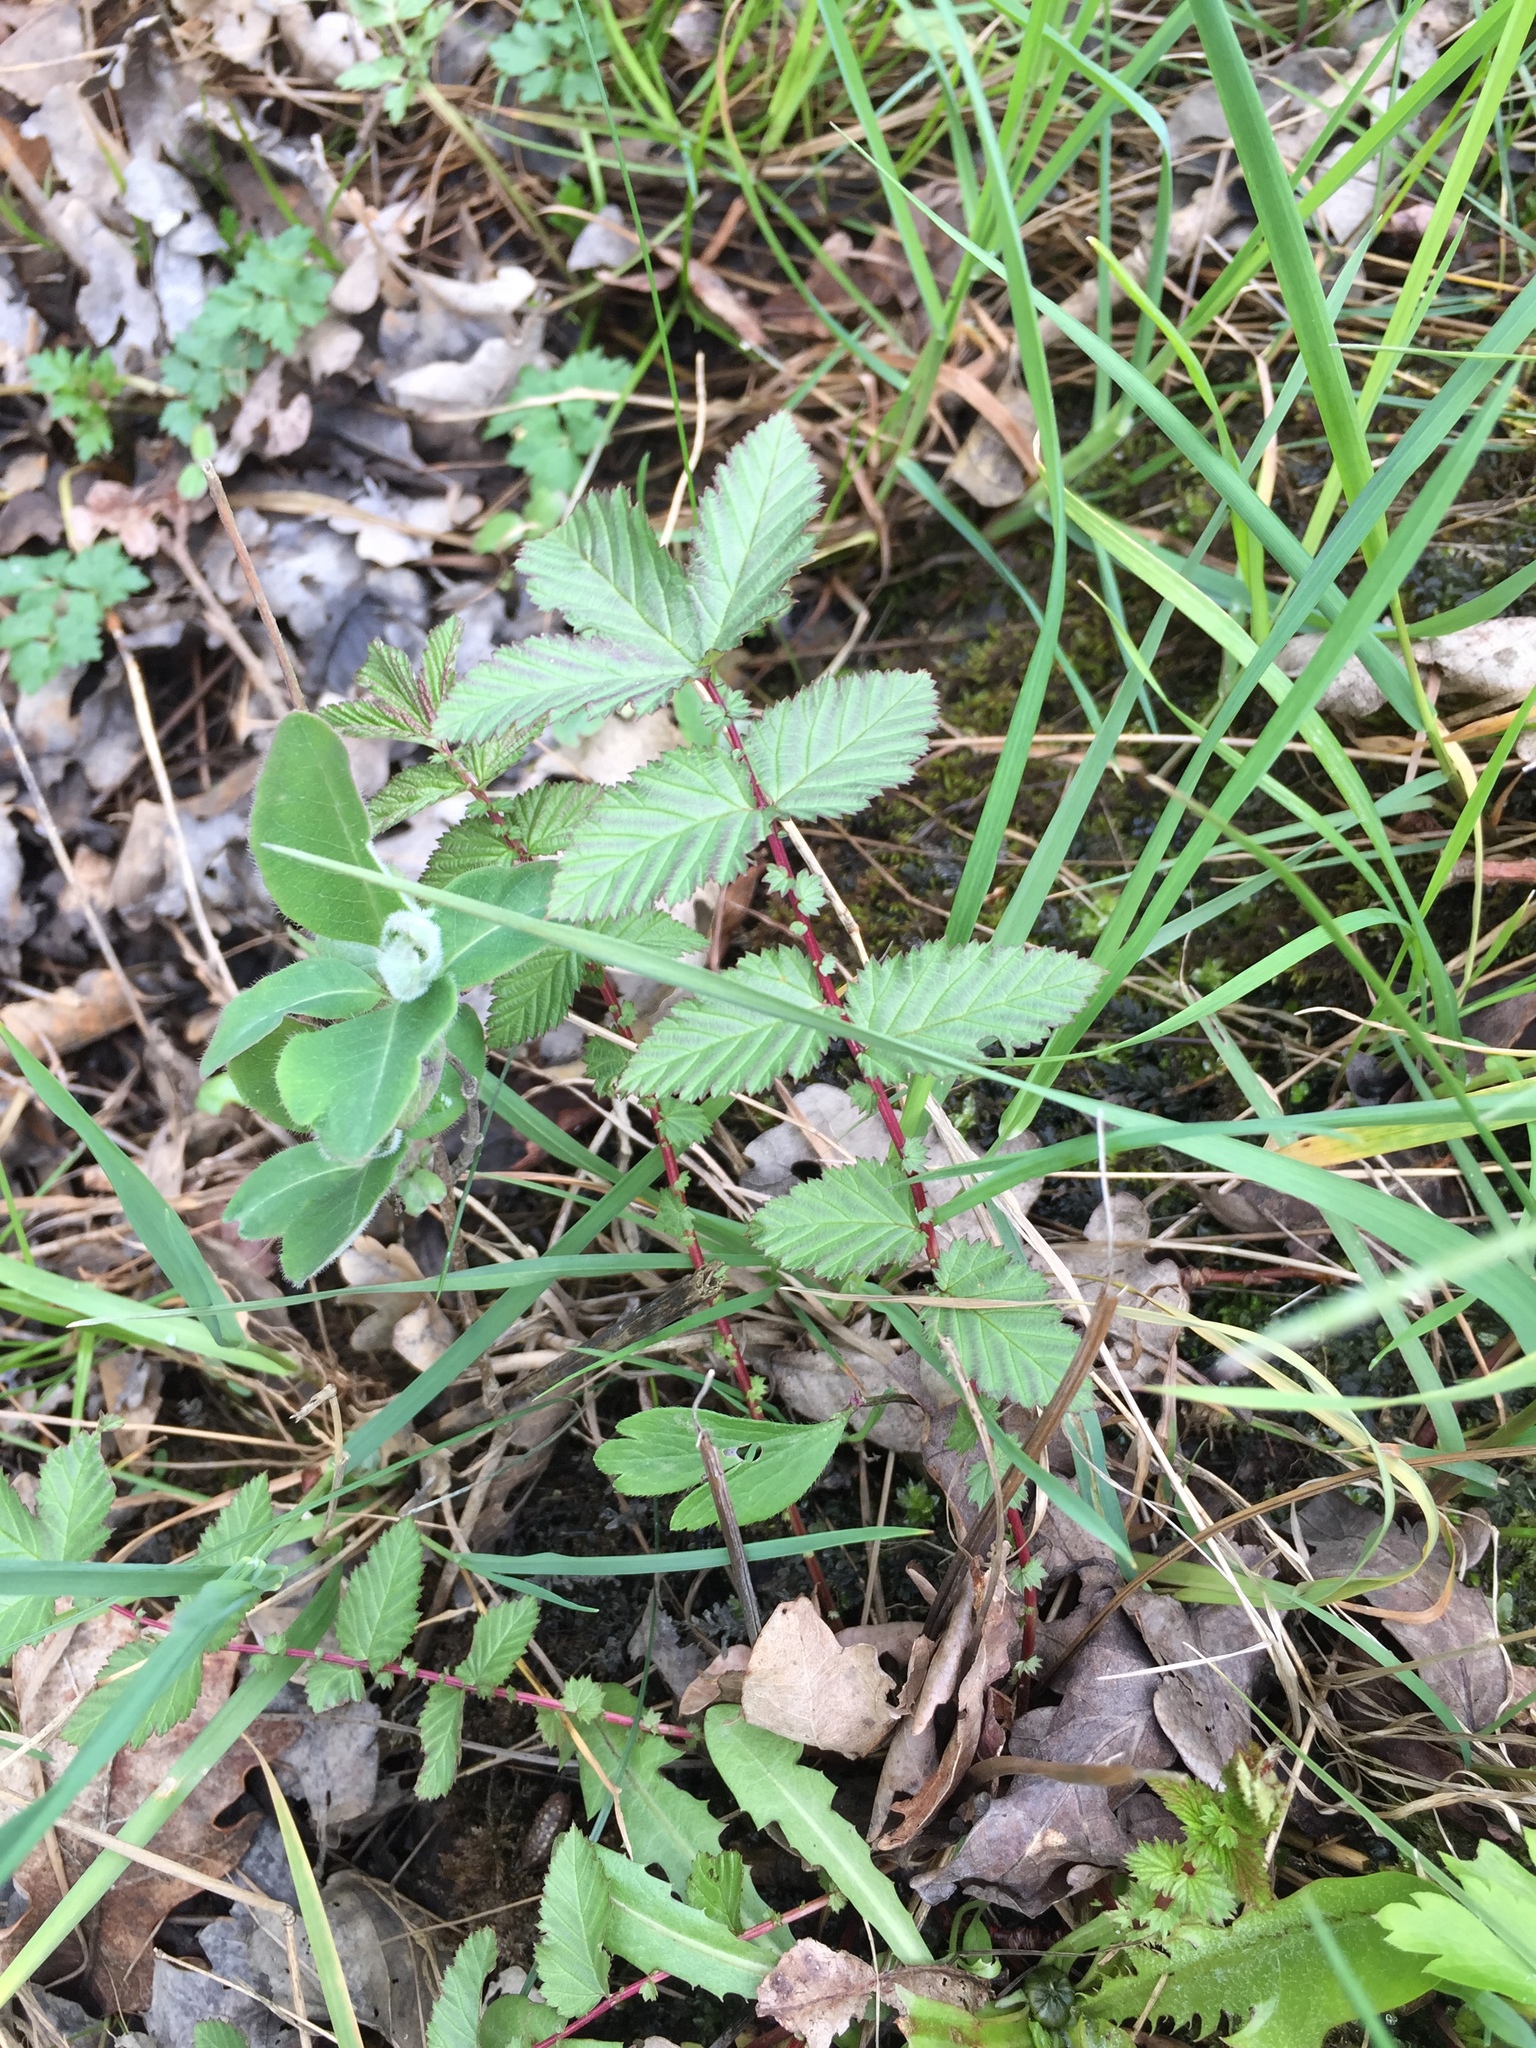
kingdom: Plantae
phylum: Tracheophyta
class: Magnoliopsida
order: Rosales
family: Rosaceae
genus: Filipendula
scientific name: Filipendula ulmaria
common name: Meadowsweet
